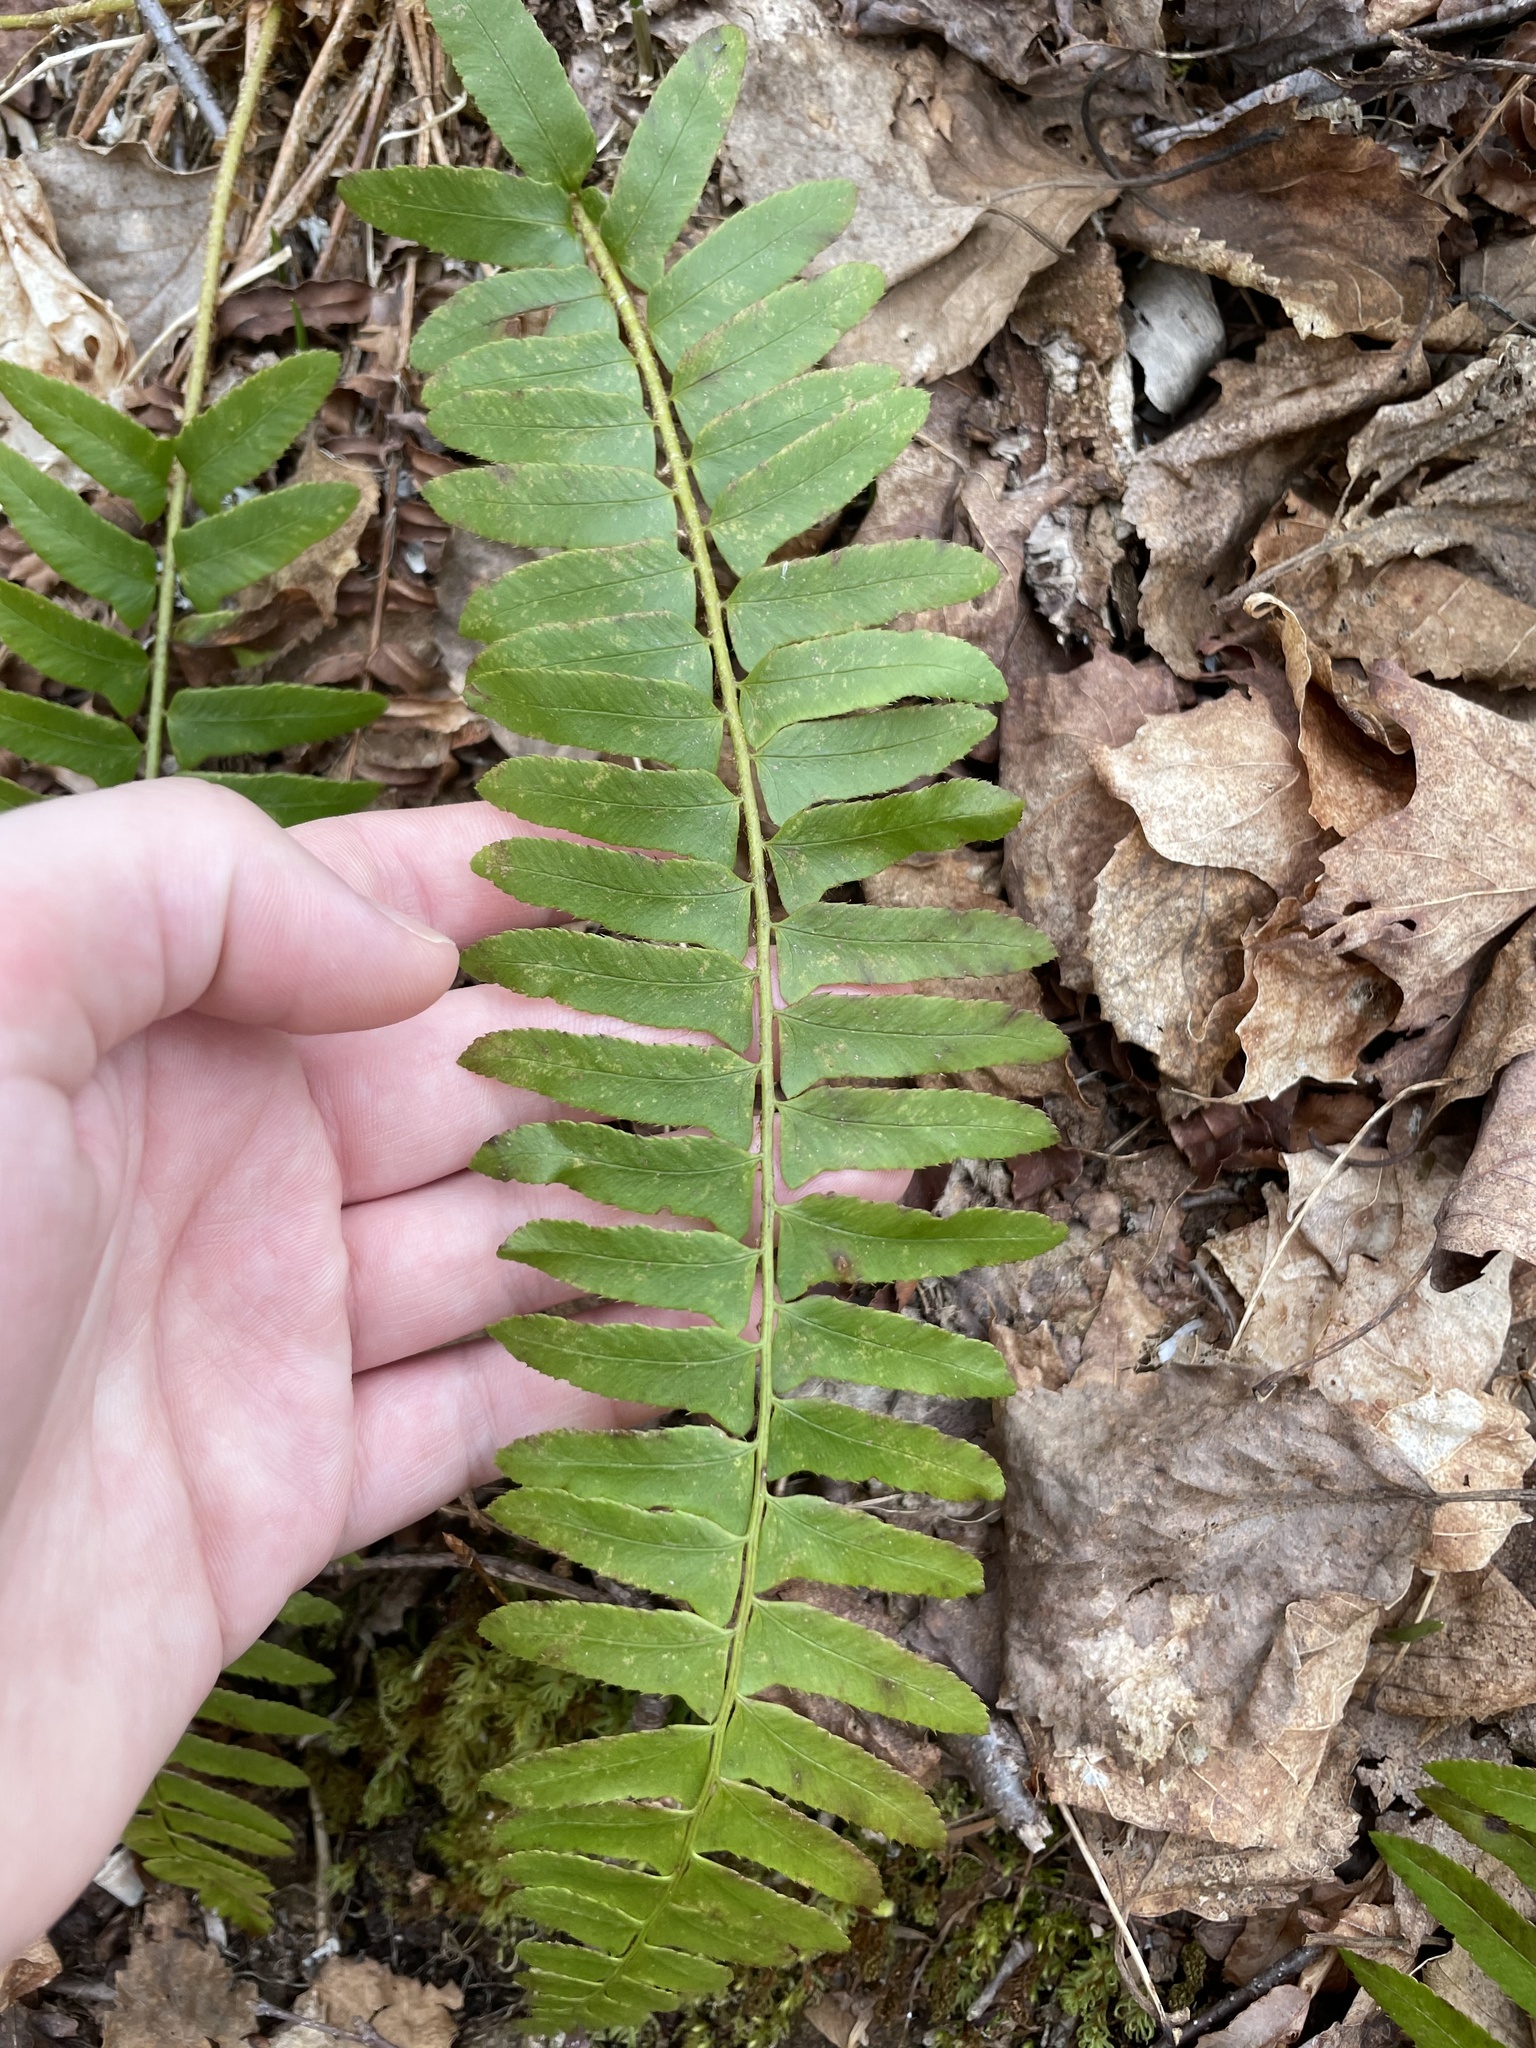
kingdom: Plantae
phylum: Tracheophyta
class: Polypodiopsida
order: Polypodiales
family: Dryopteridaceae
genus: Polystichum
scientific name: Polystichum acrostichoides
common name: Christmas fern
